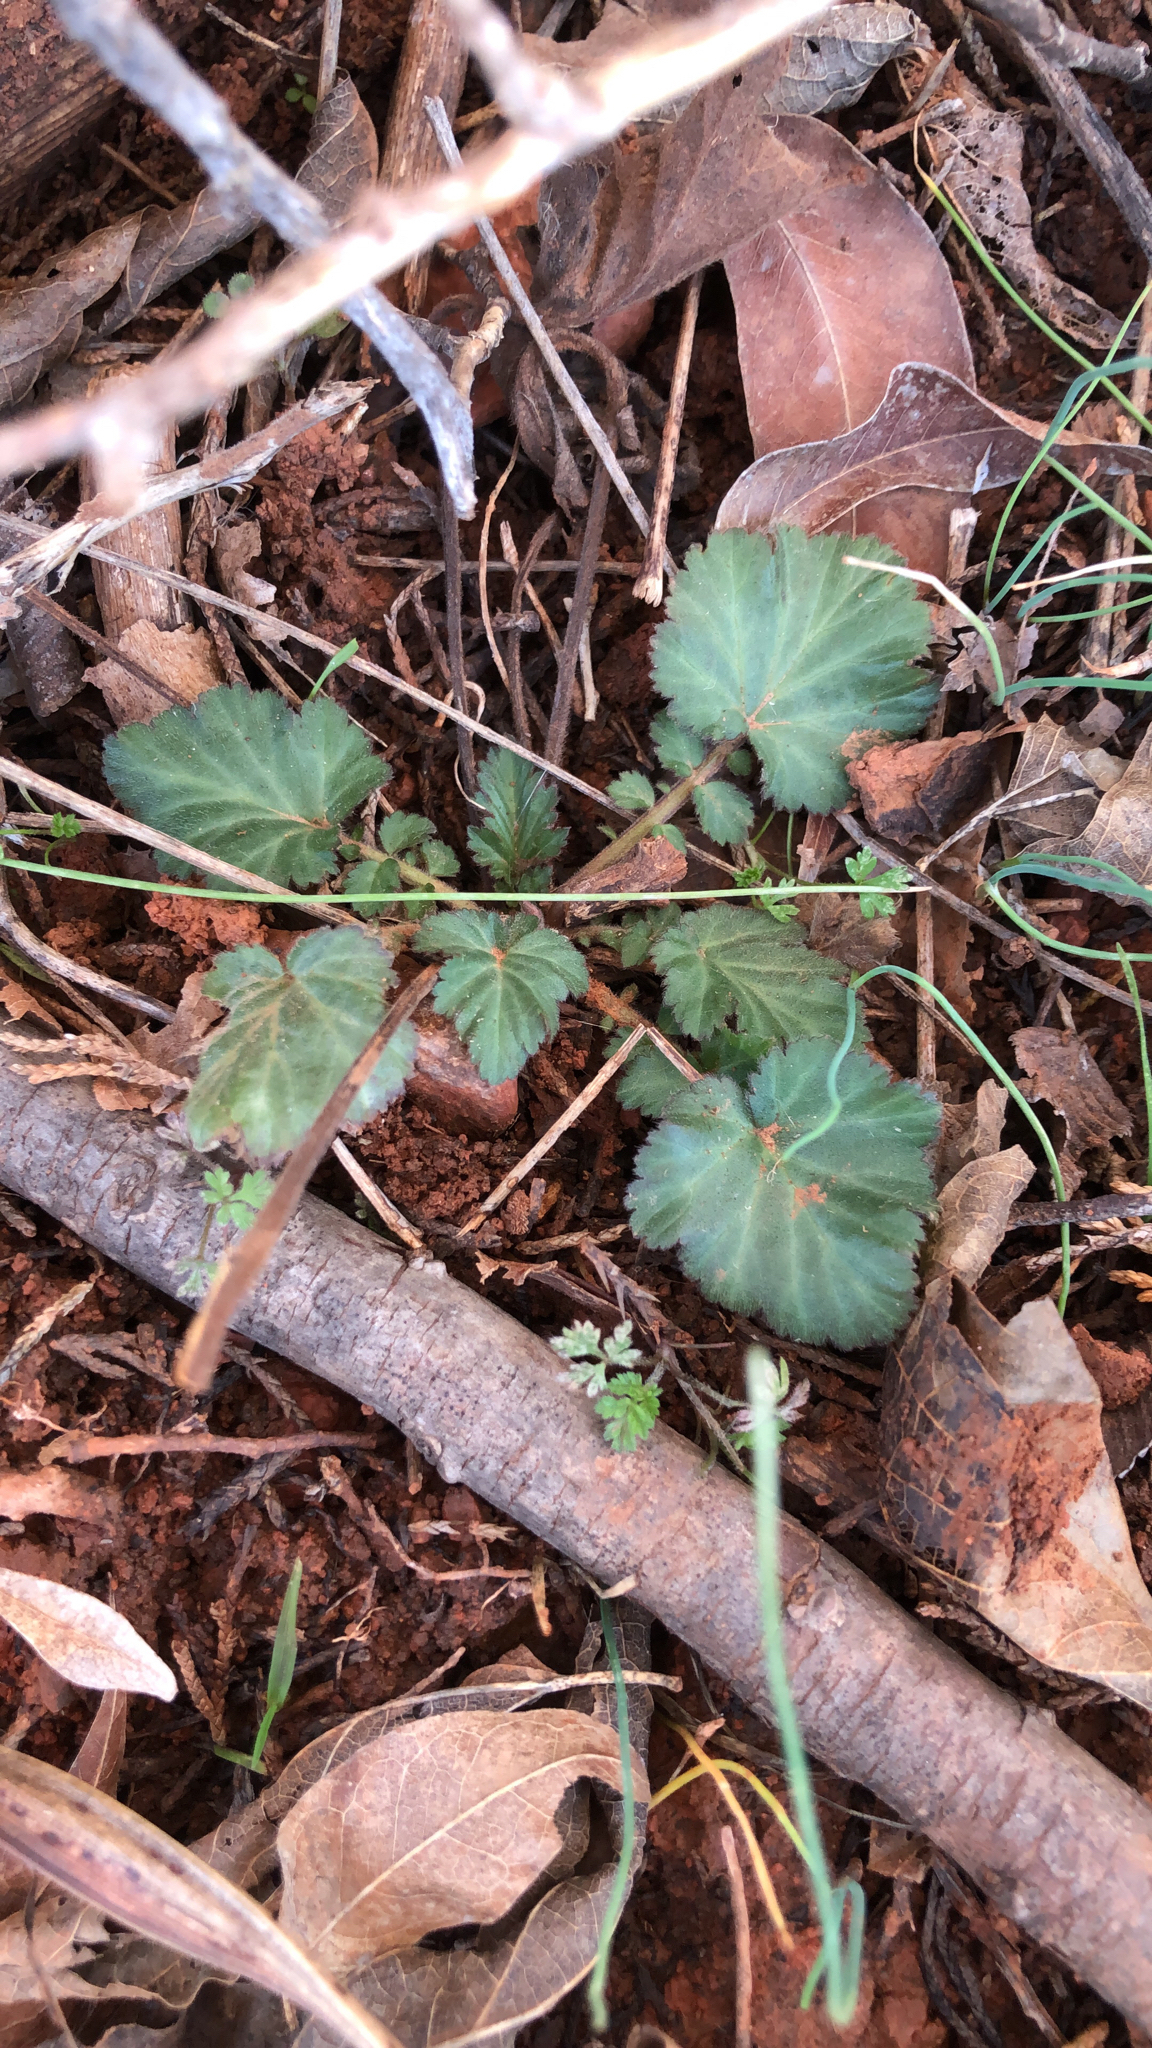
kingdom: Plantae
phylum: Tracheophyta
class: Magnoliopsida
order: Rosales
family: Rosaceae
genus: Geum
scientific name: Geum canadense
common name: White avens
